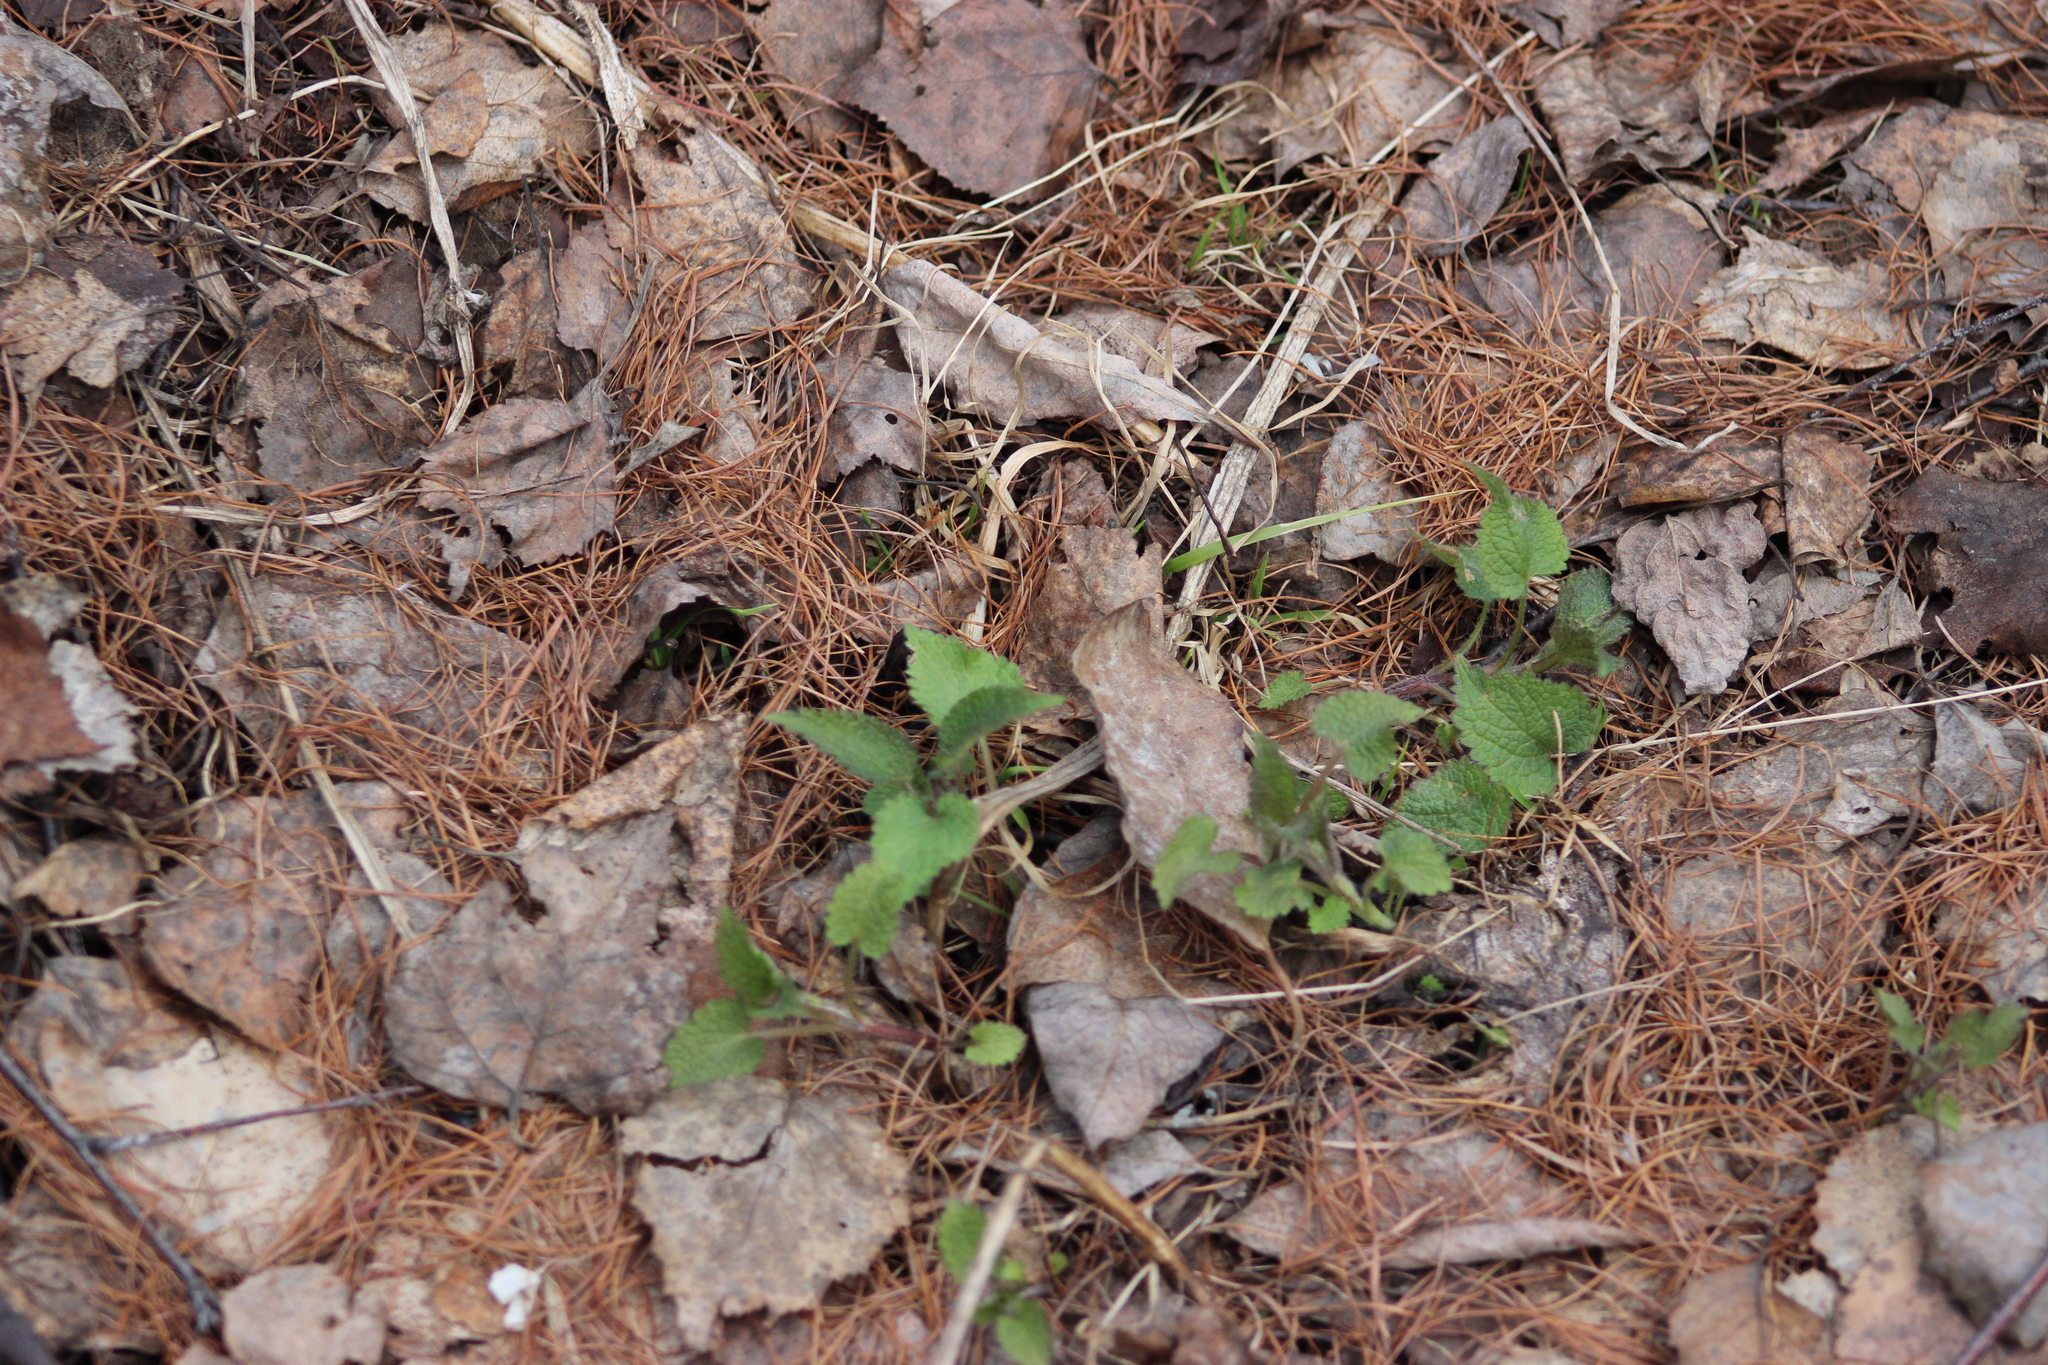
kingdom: Plantae
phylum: Tracheophyta
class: Magnoliopsida
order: Lamiales
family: Lamiaceae
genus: Lamium
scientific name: Lamium album
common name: White dead-nettle
